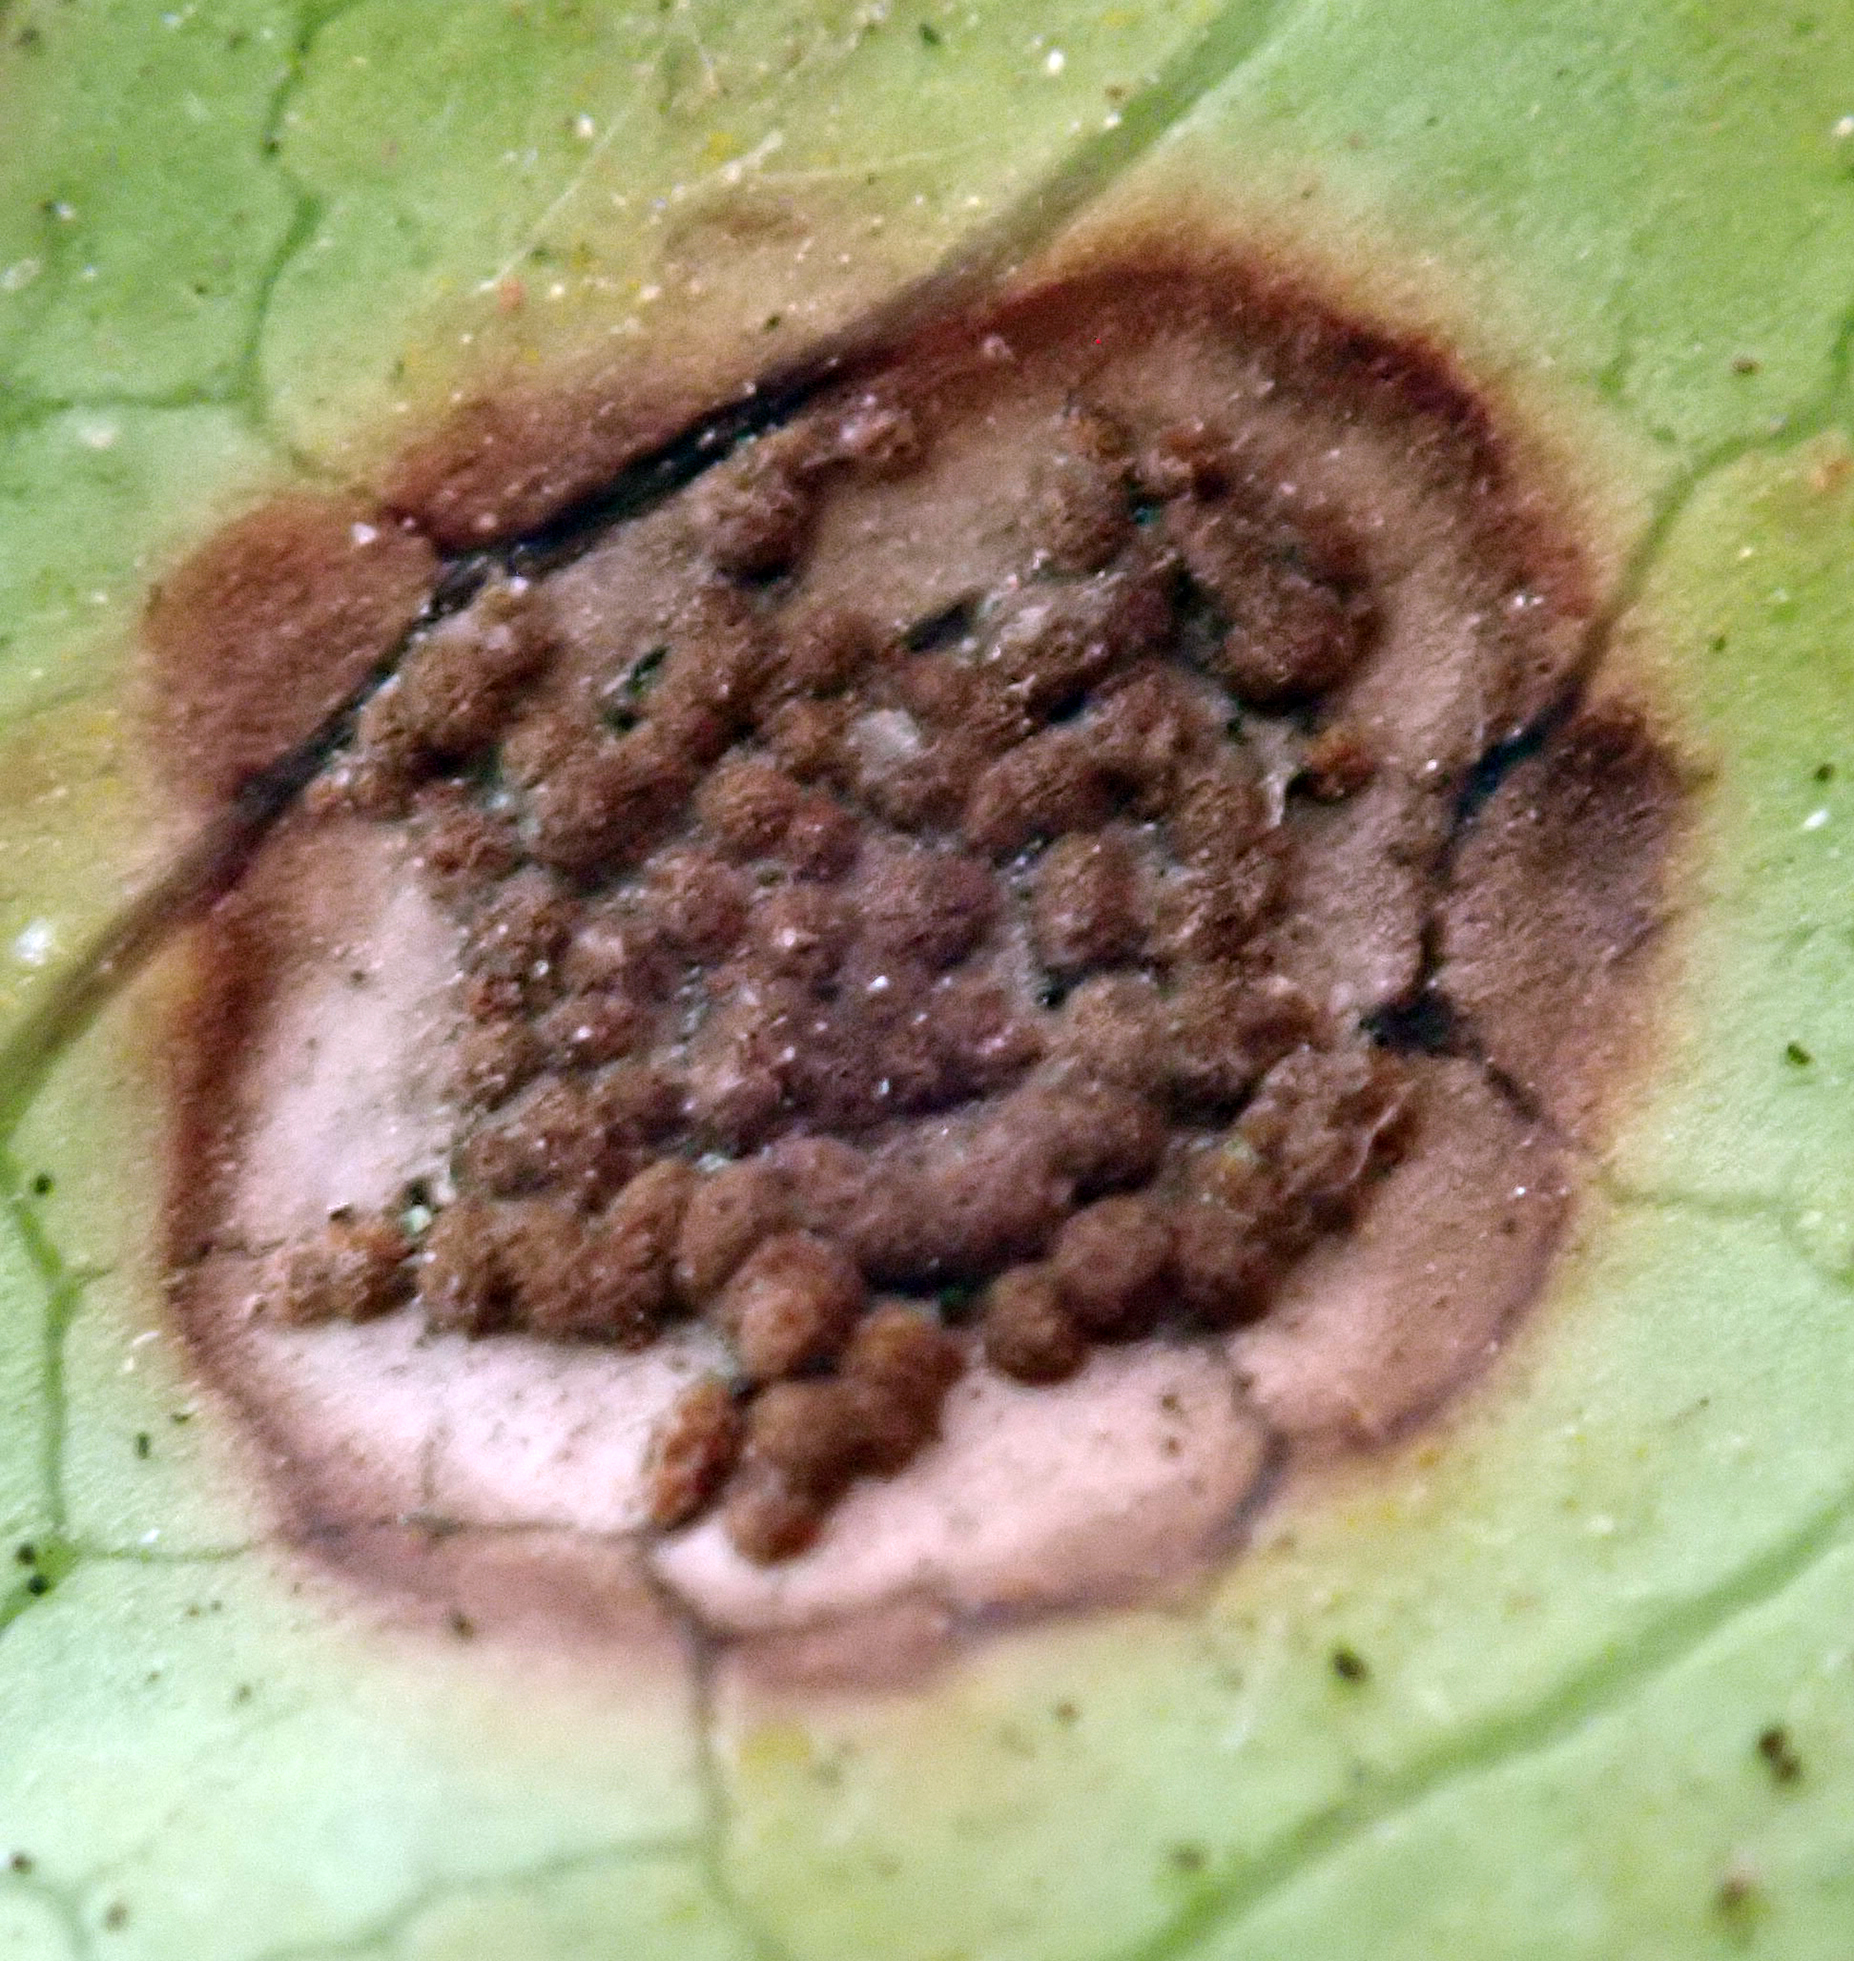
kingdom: Fungi
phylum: Basidiomycota
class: Pucciniomycetes
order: Pucciniales
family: Pucciniaceae
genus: Puccinia
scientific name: Puccinia coprosmae
